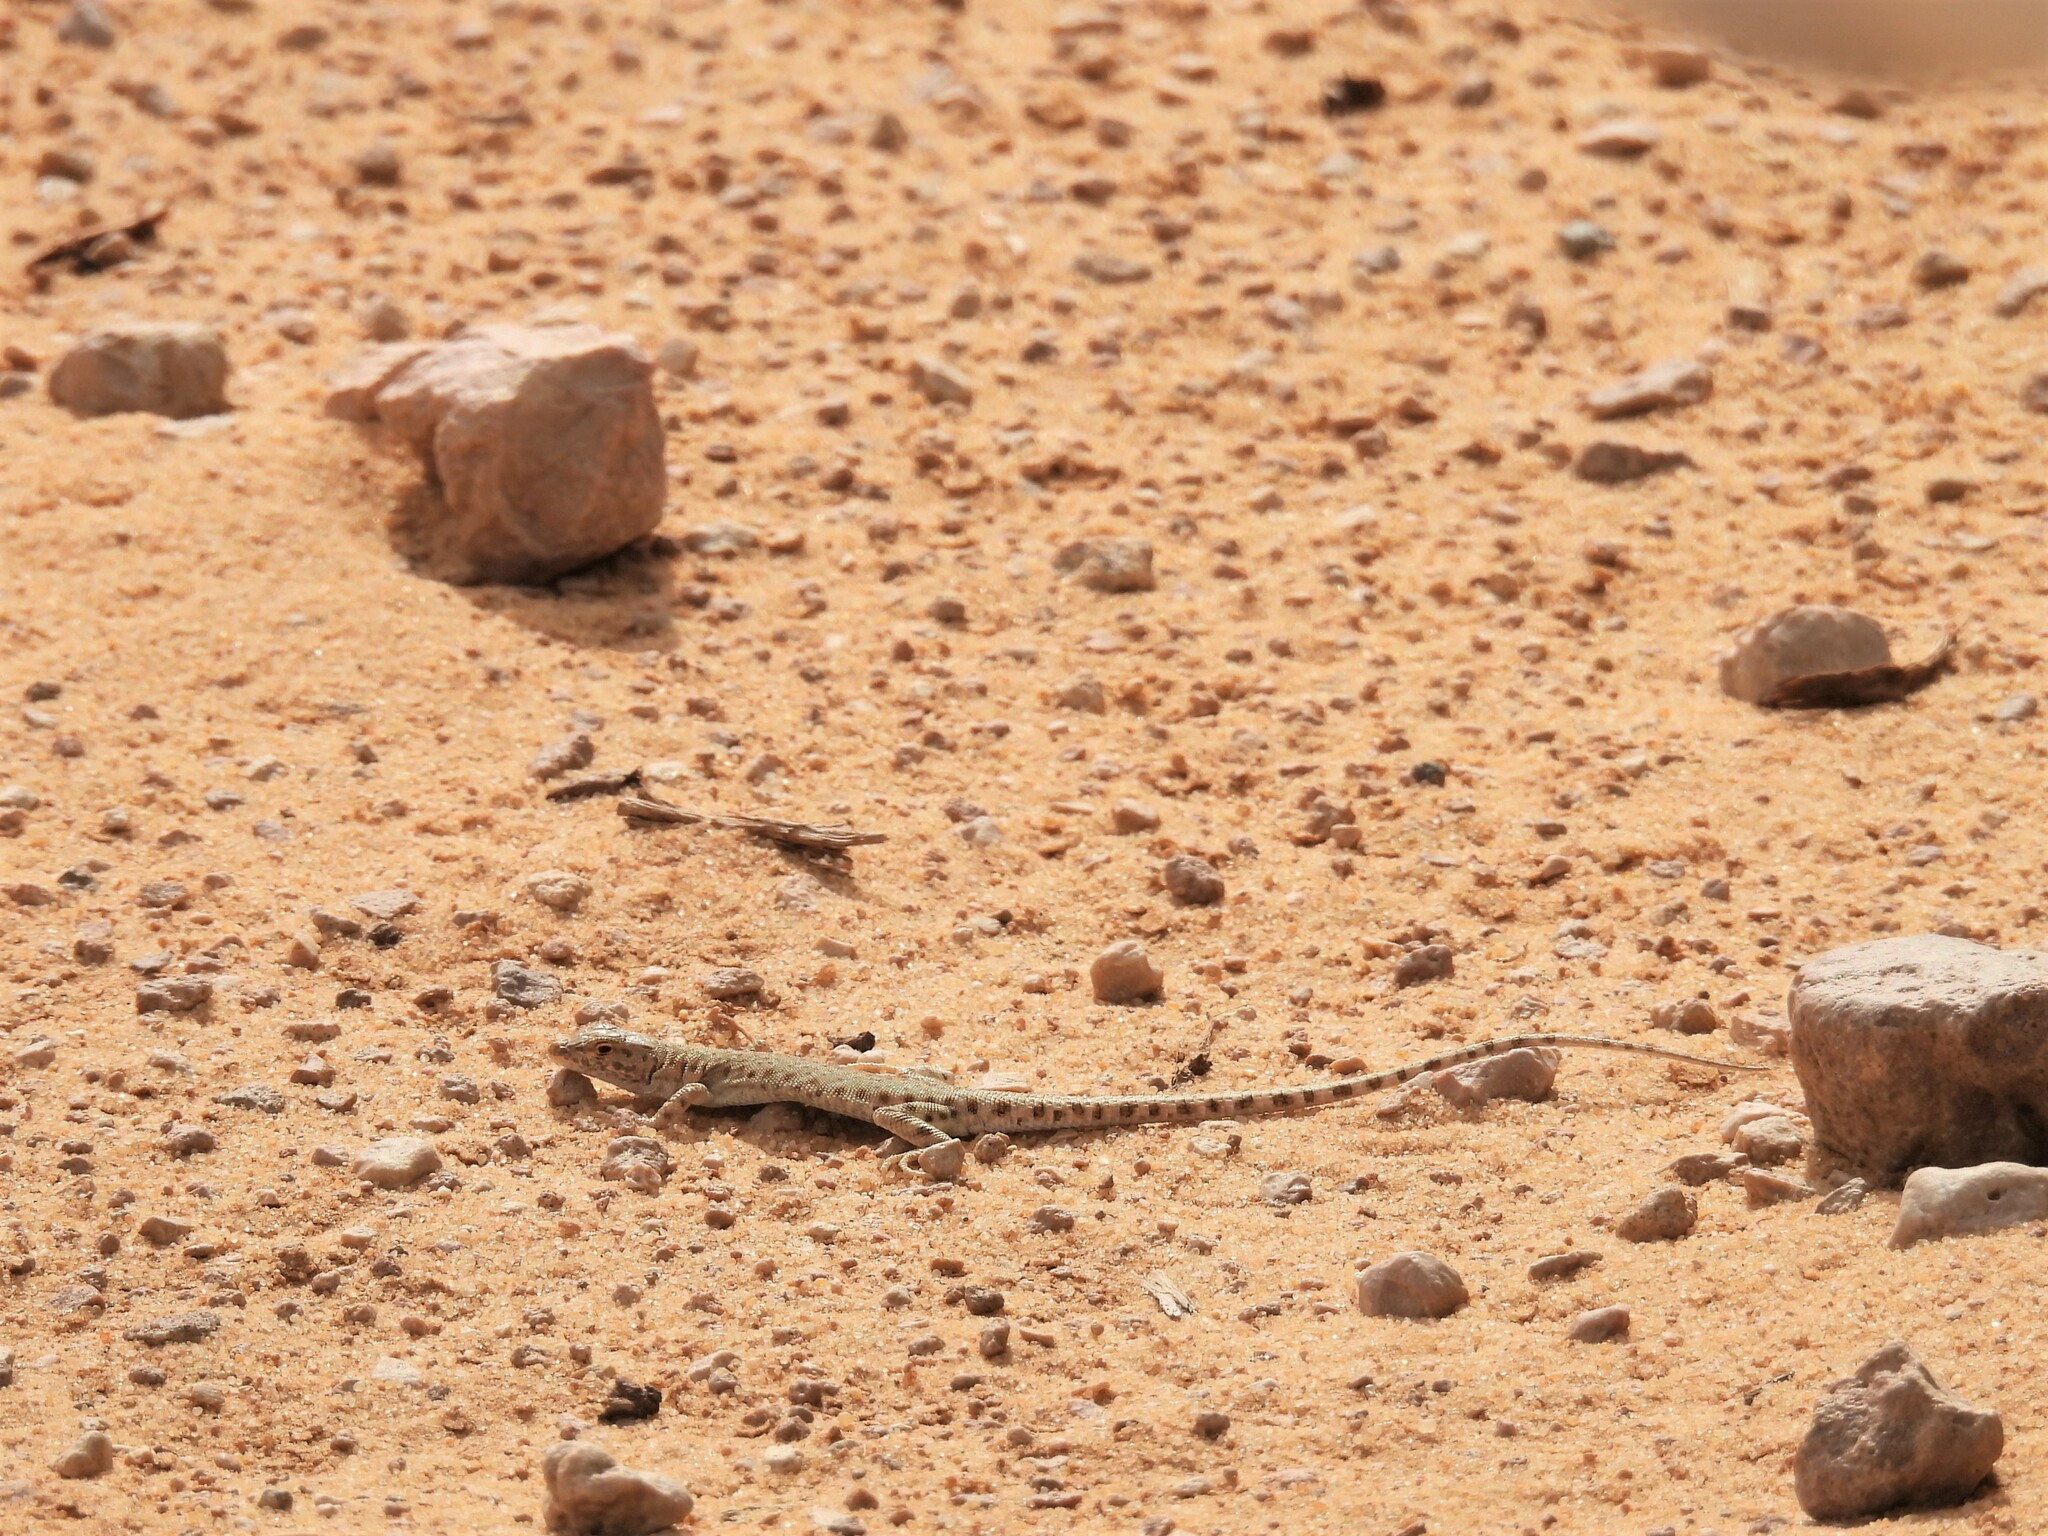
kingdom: Animalia
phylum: Chordata
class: Squamata
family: Lacertidae
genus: Mesalina
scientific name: Mesalina brevirostris
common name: Blanford's short-nosed desert lizard
